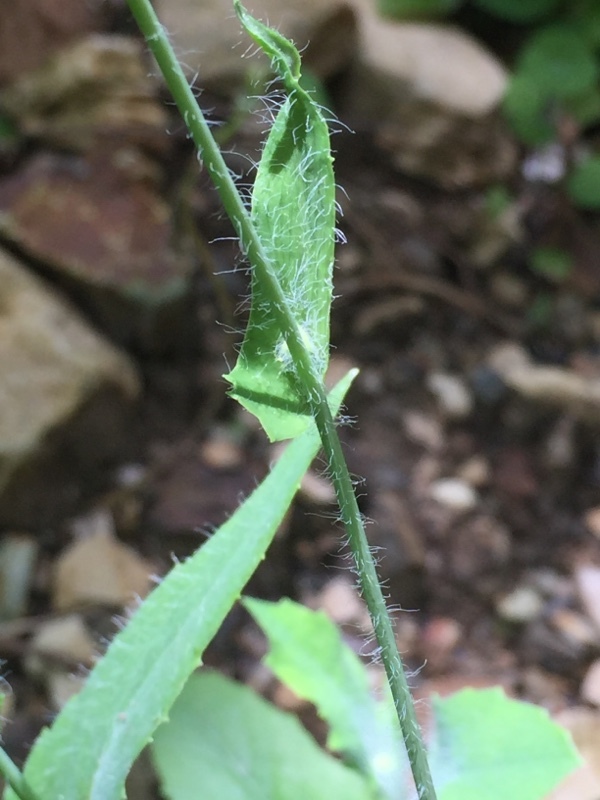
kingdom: Plantae
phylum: Tracheophyta
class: Magnoliopsida
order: Asterales
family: Asteraceae
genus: Emilia
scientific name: Emilia fosbergii
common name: Florida tasselflower
